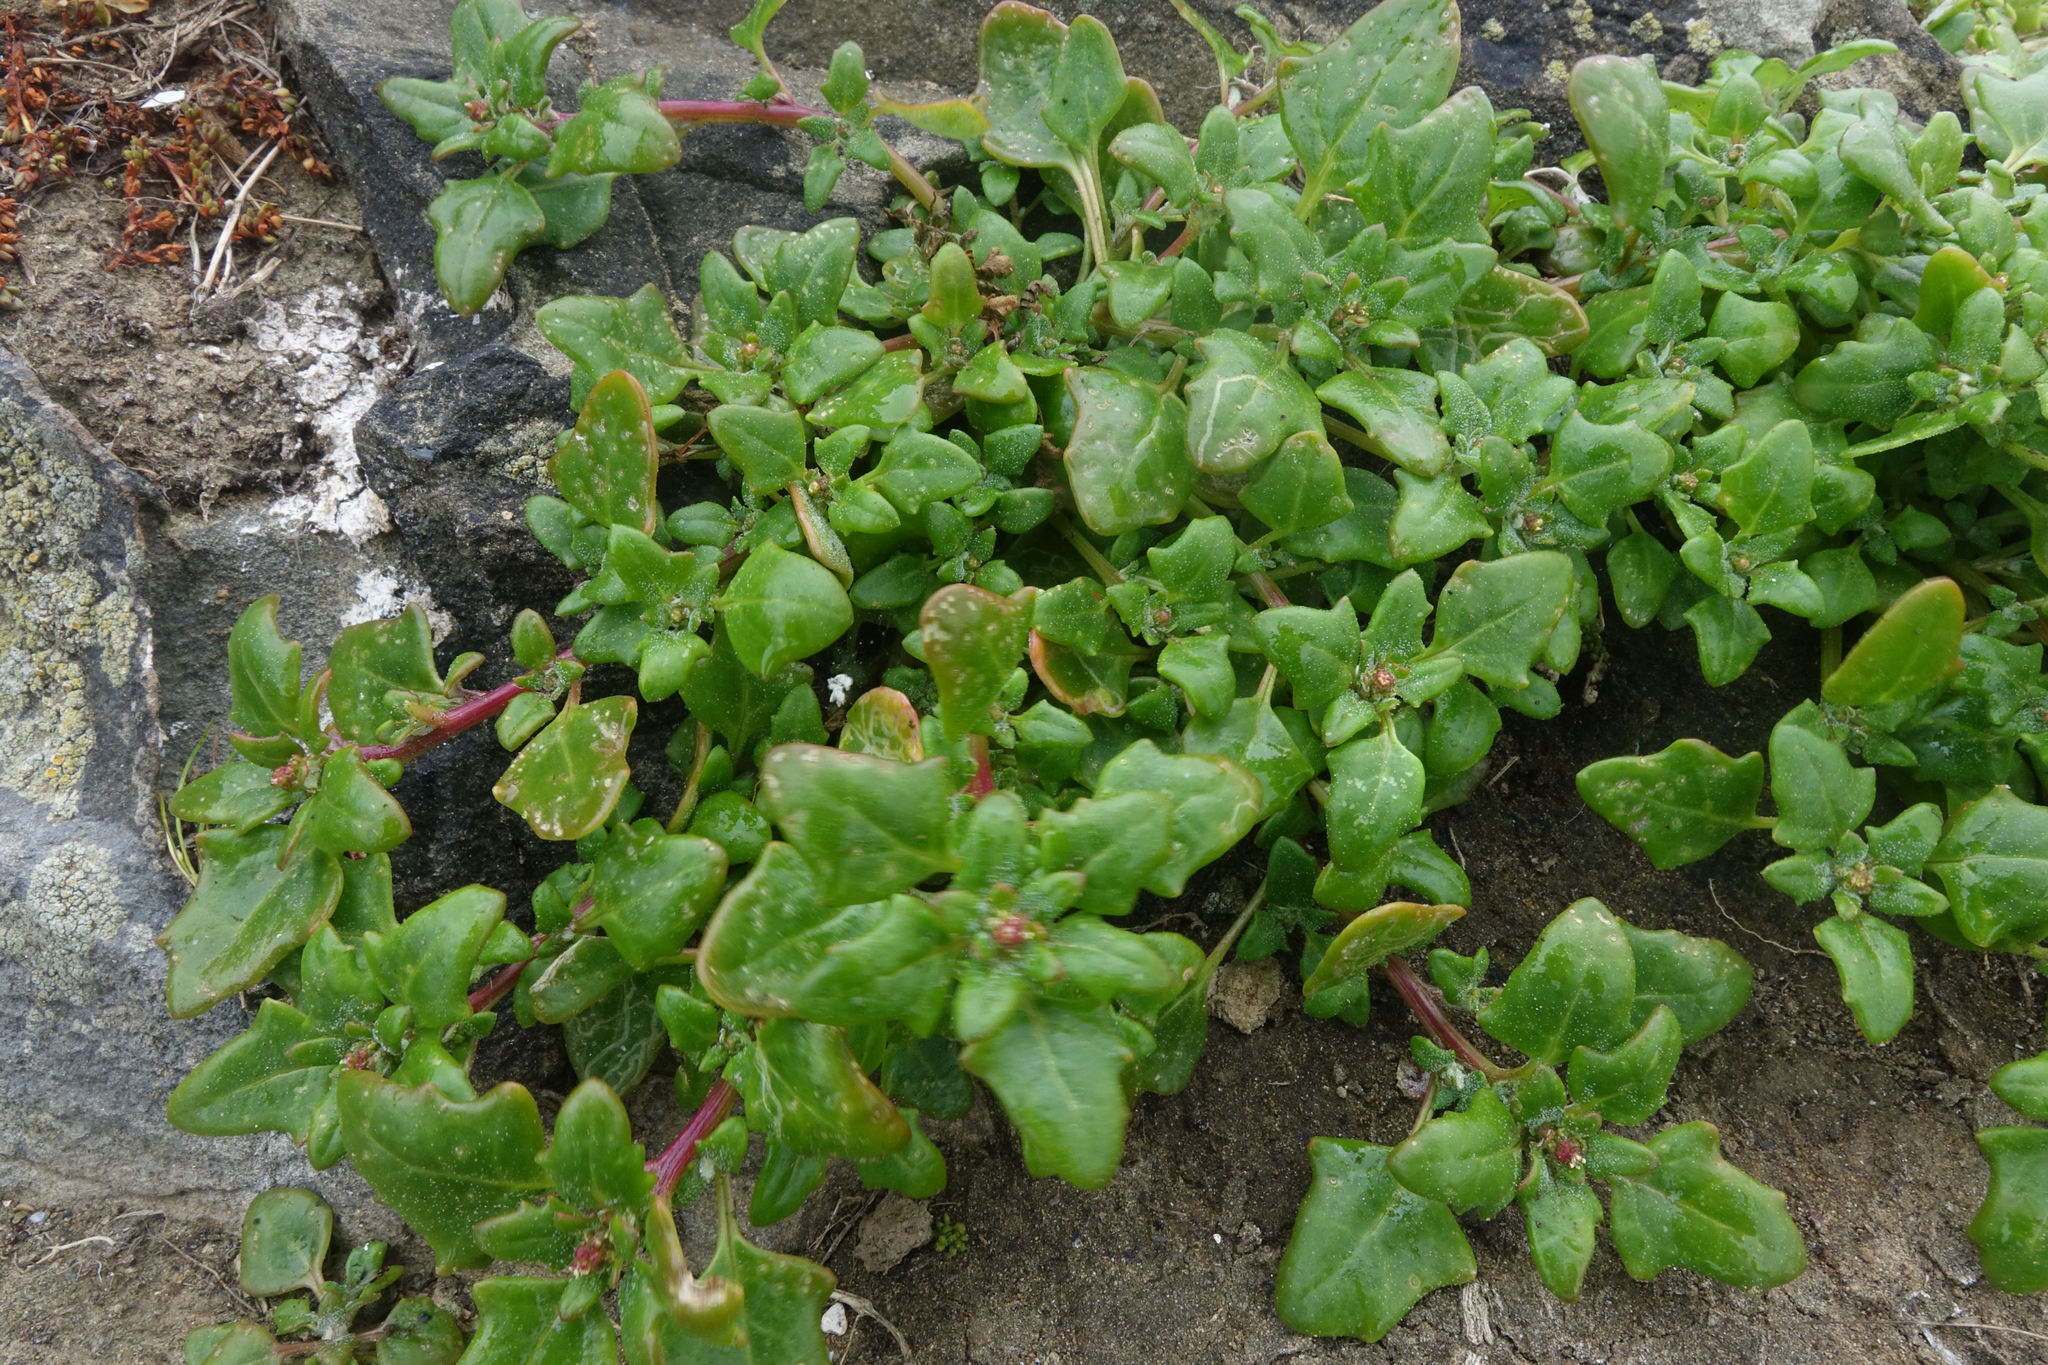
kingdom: Plantae
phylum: Tracheophyta
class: Magnoliopsida
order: Caryophyllales
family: Amaranthaceae
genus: Oxybasis
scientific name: Oxybasis ambigua
